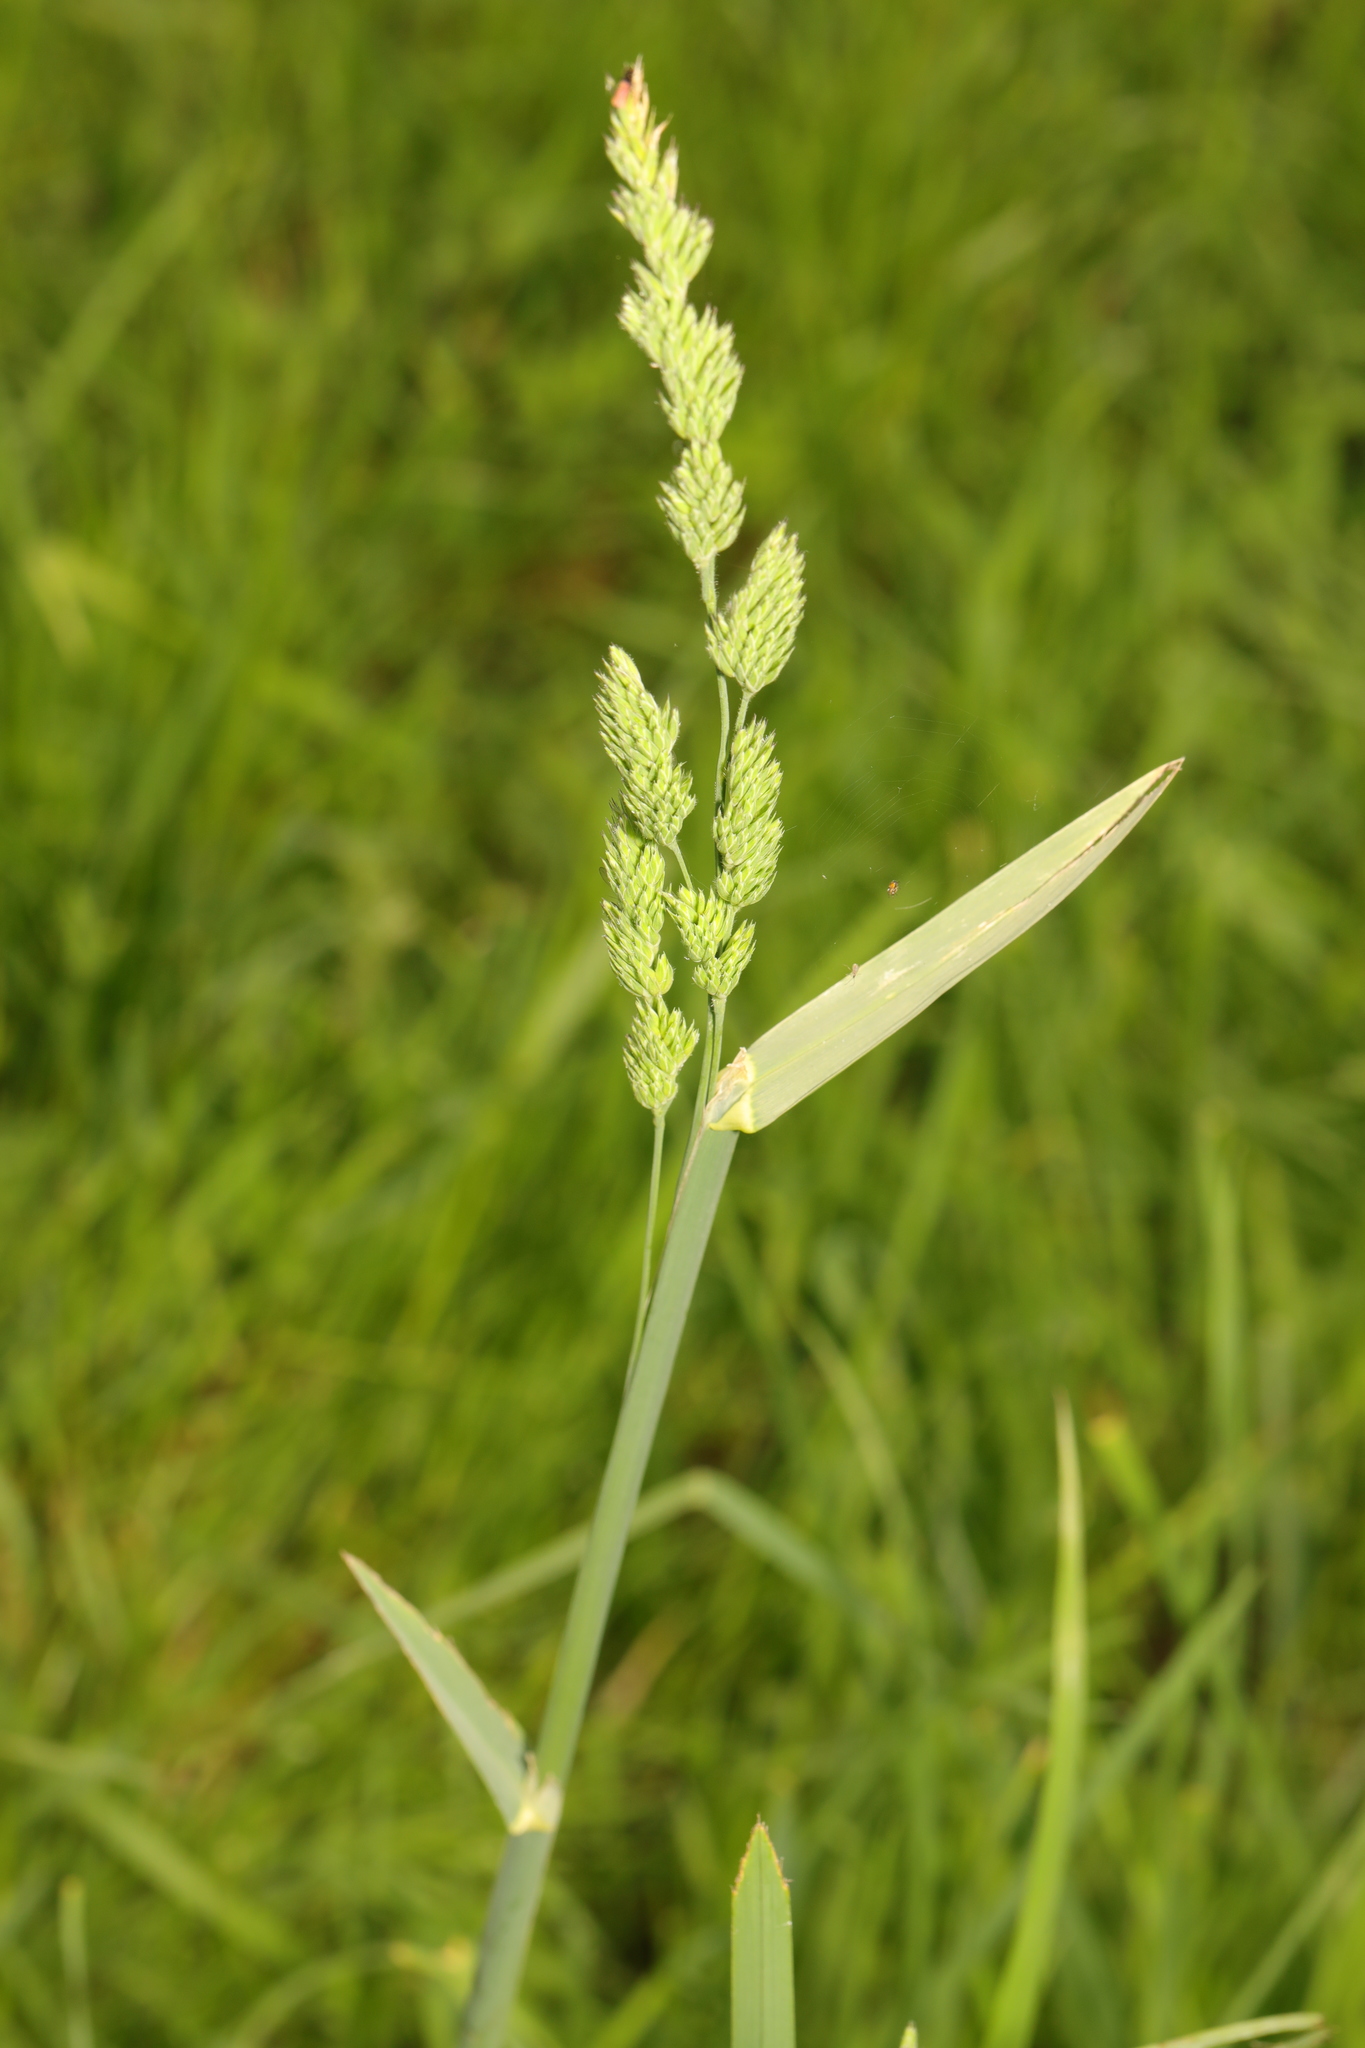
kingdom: Plantae
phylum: Tracheophyta
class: Liliopsida
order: Poales
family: Poaceae
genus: Dactylis
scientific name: Dactylis glomerata
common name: Orchardgrass
